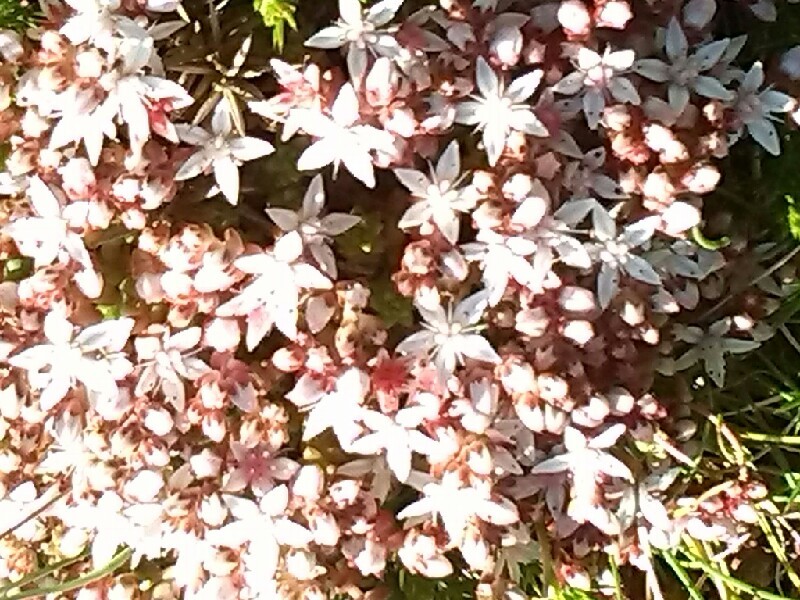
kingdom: Plantae
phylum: Tracheophyta
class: Magnoliopsida
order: Saxifragales
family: Crassulaceae
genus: Sedum
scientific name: Sedum anglicum
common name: English stonecrop
